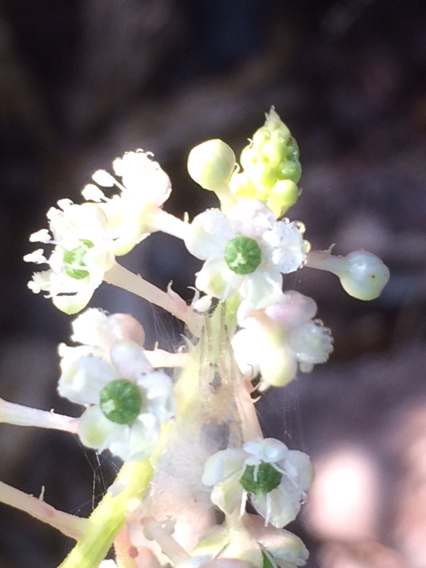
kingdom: Plantae
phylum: Tracheophyta
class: Magnoliopsida
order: Caryophyllales
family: Phytolaccaceae
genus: Phytolacca
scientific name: Phytolacca americana
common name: American pokeweed
